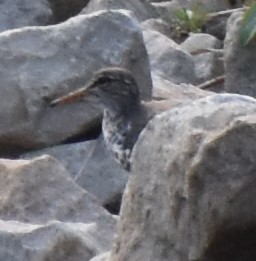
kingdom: Animalia
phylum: Chordata
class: Aves
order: Charadriiformes
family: Scolopacidae
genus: Actitis
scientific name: Actitis macularius
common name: Spotted sandpiper
